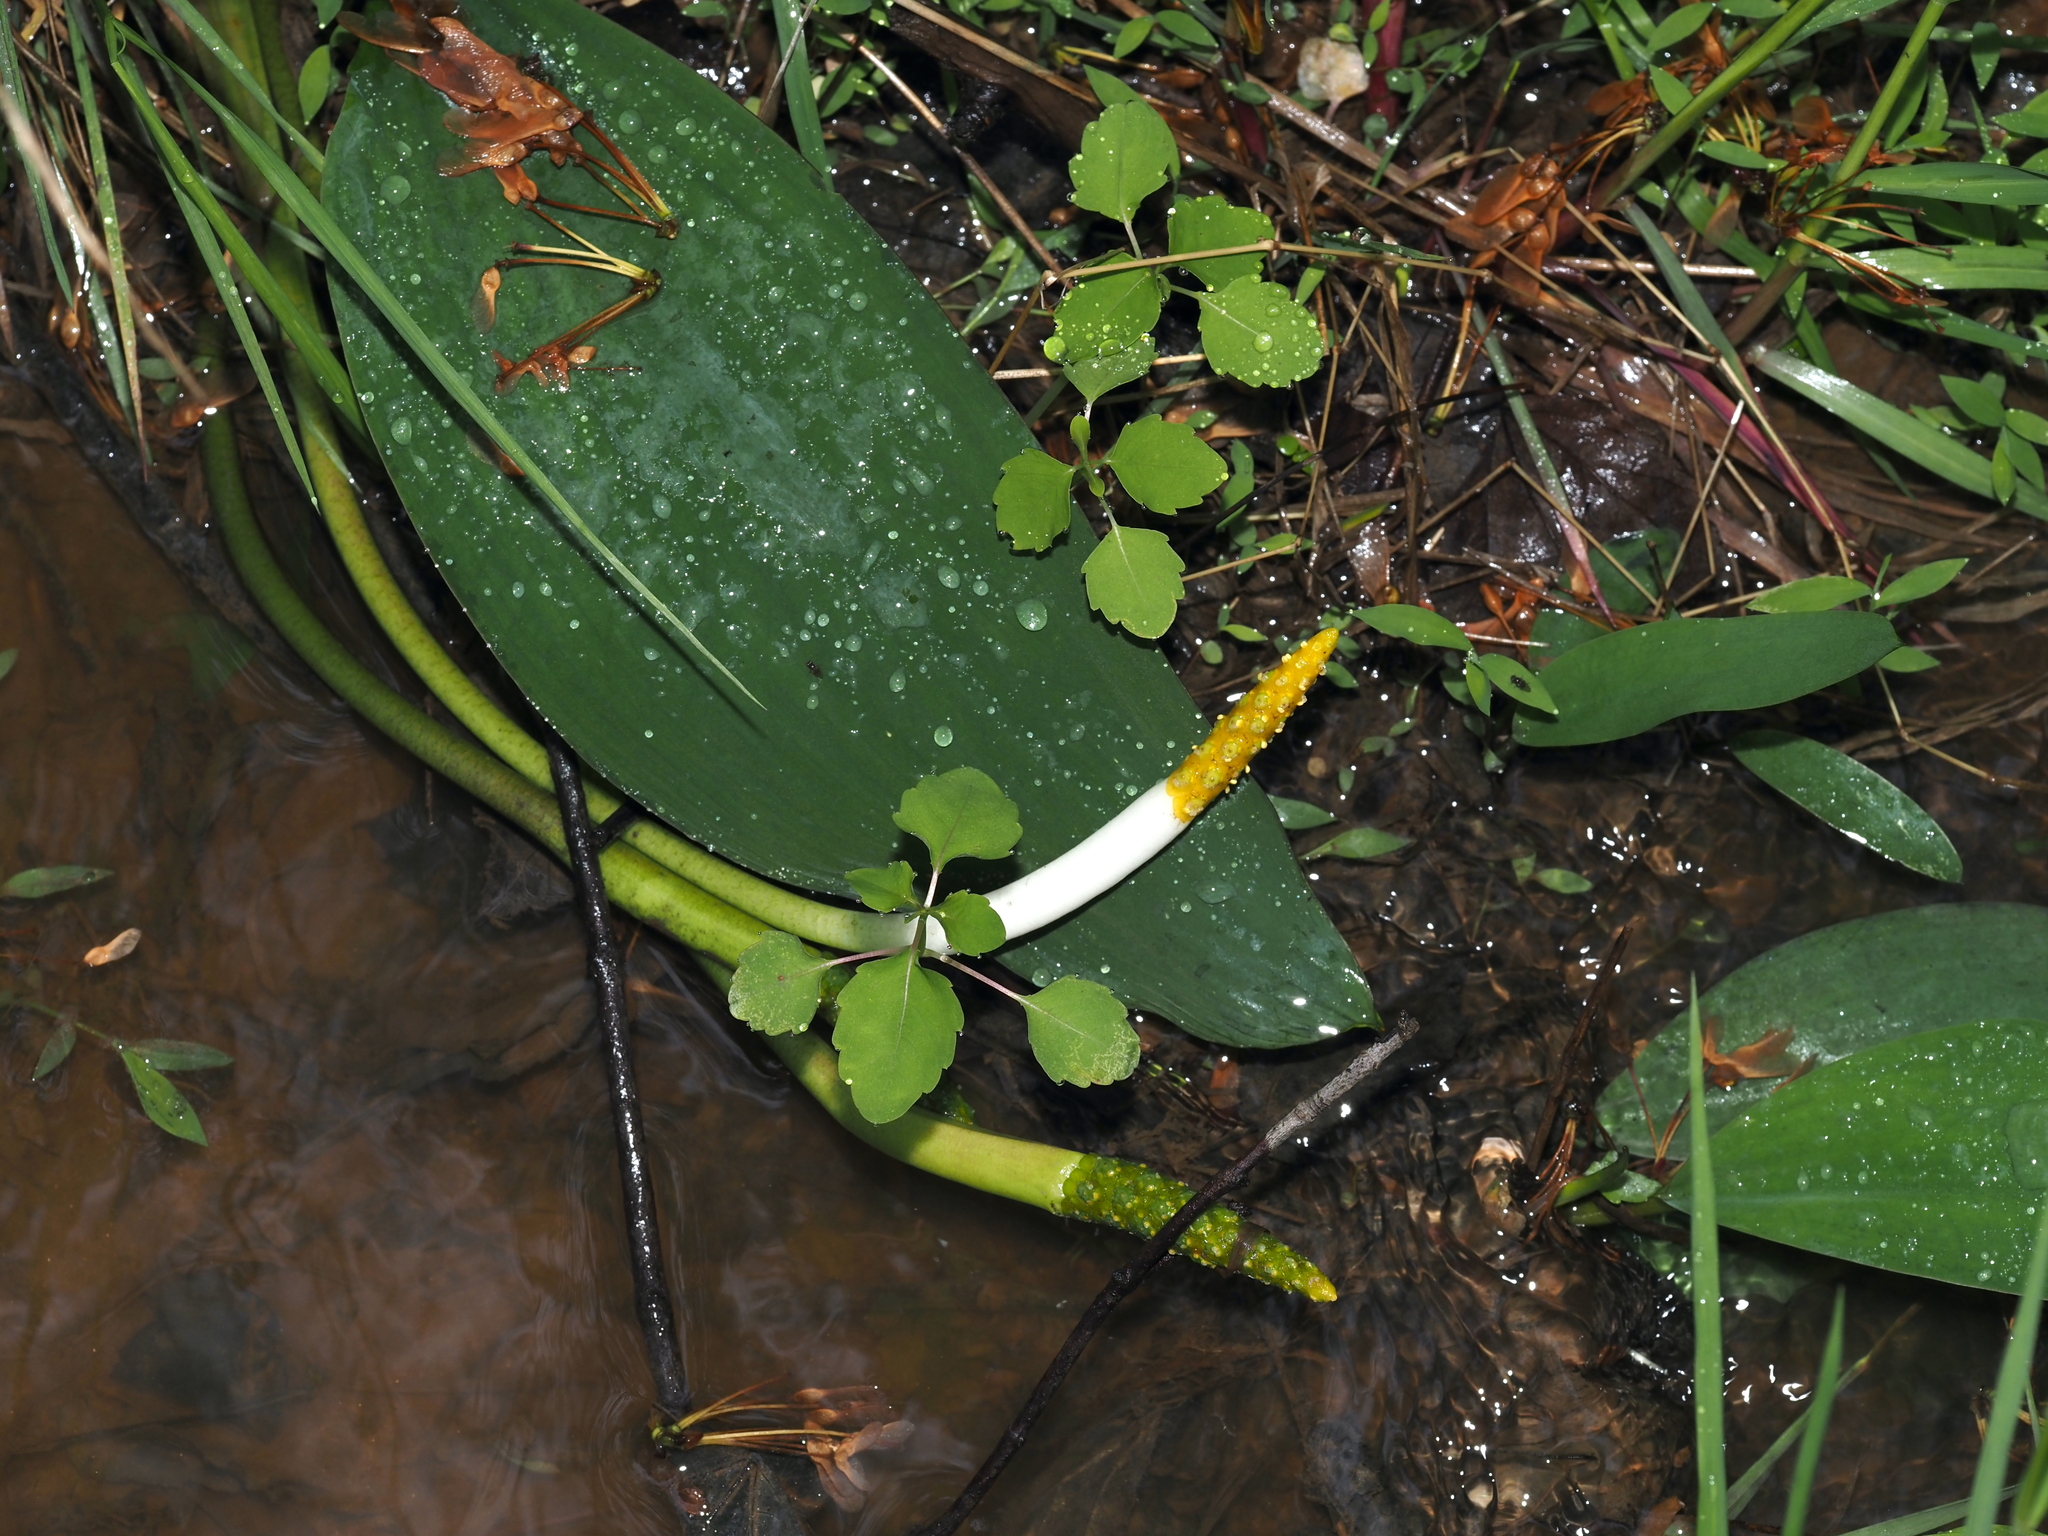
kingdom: Plantae
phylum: Tracheophyta
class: Liliopsida
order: Alismatales
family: Araceae
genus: Orontium
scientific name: Orontium aquaticum
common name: Golden-club
